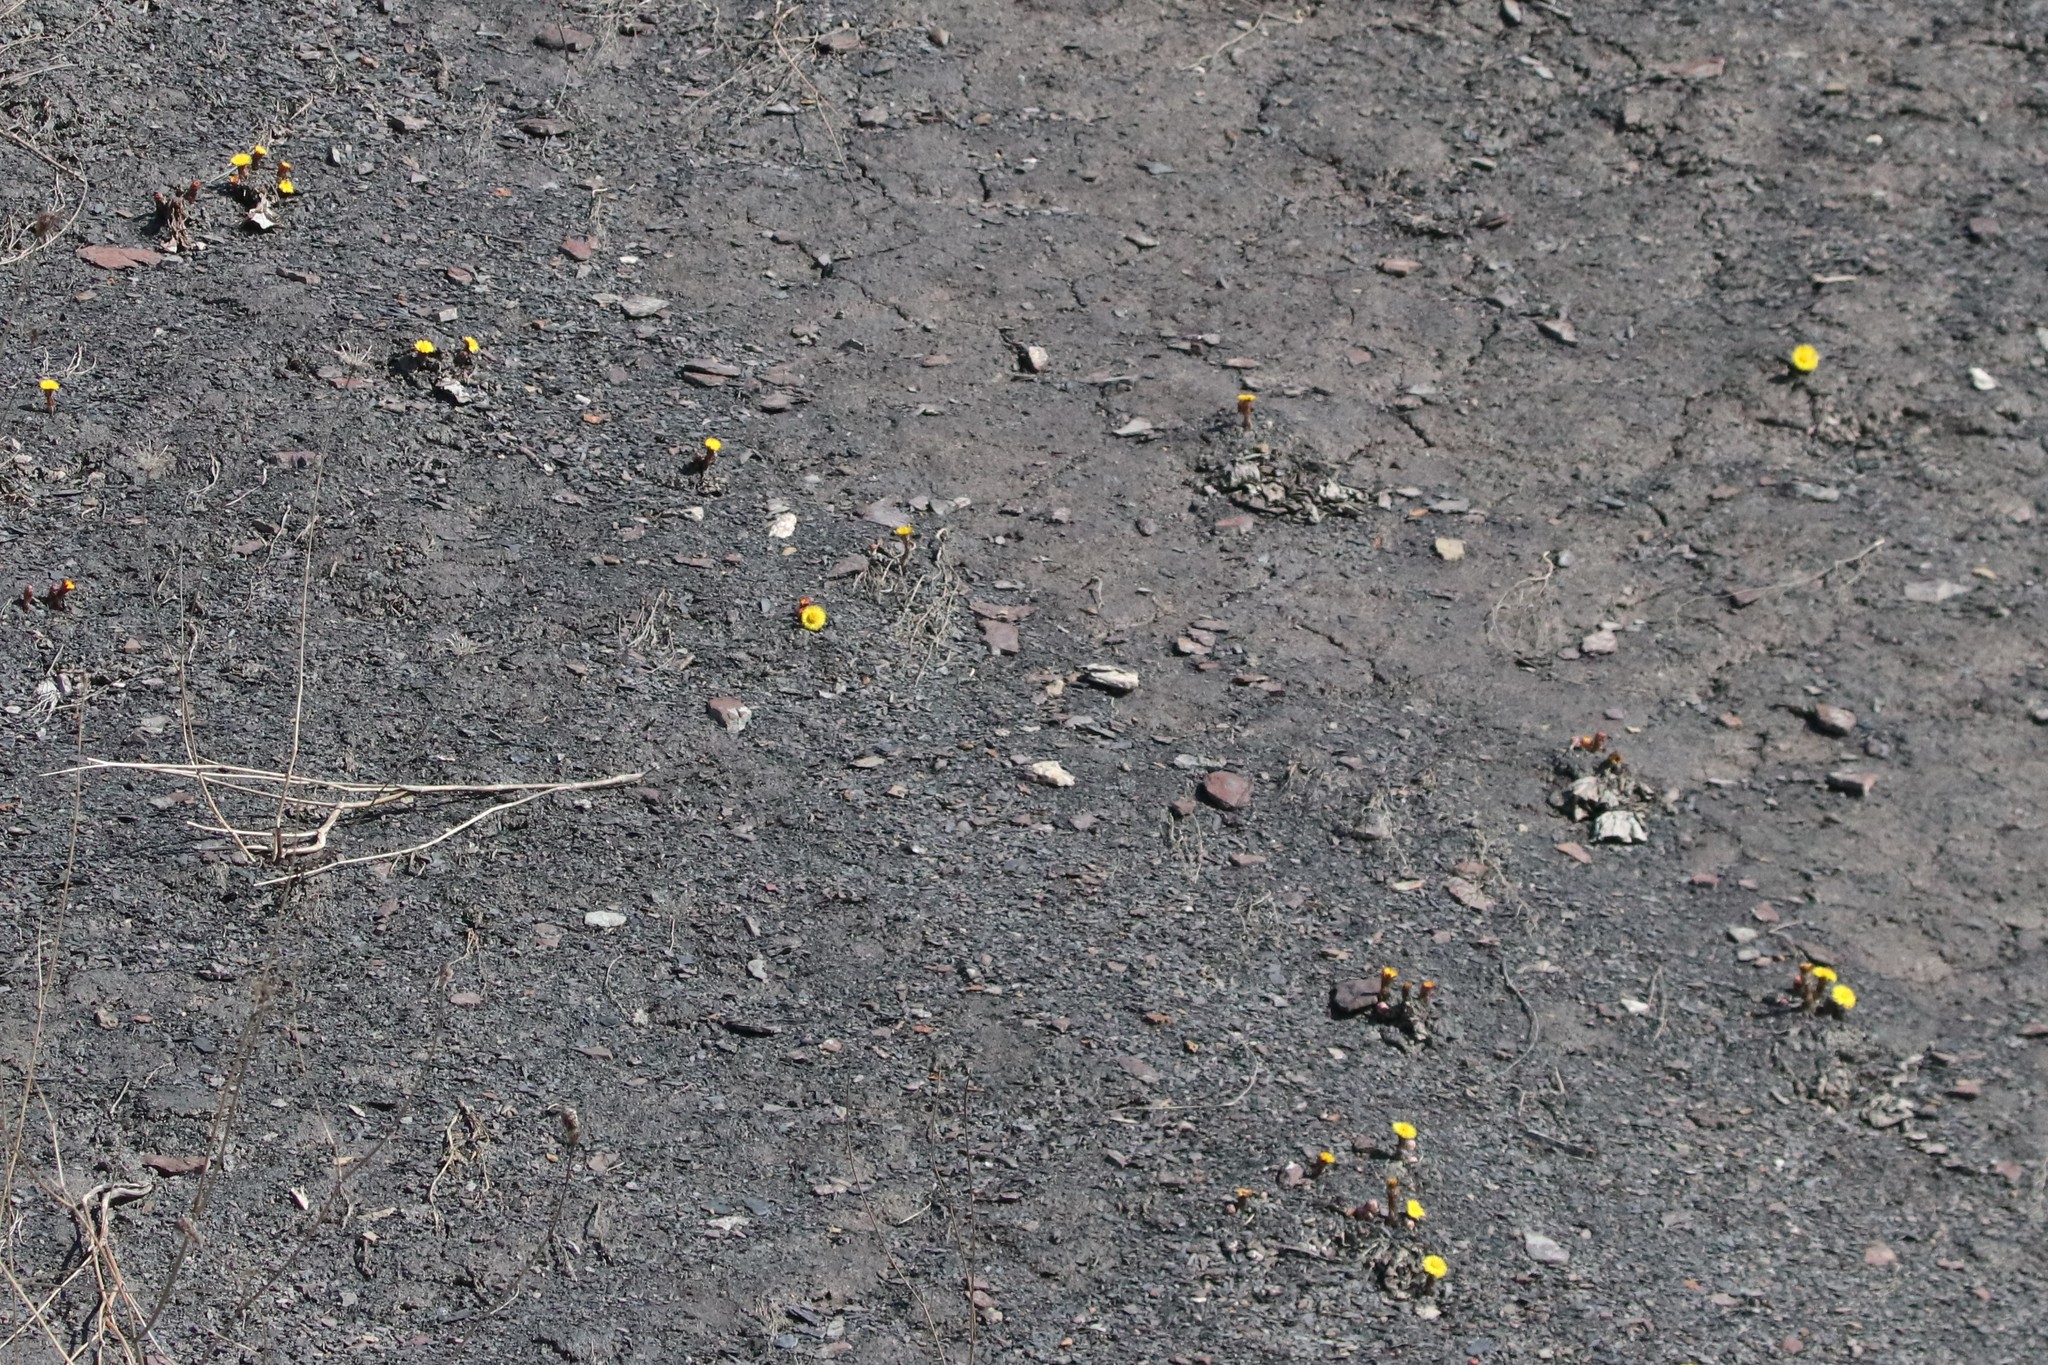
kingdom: Plantae
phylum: Tracheophyta
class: Magnoliopsida
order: Asterales
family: Asteraceae
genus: Tussilago
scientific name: Tussilago farfara
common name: Coltsfoot
